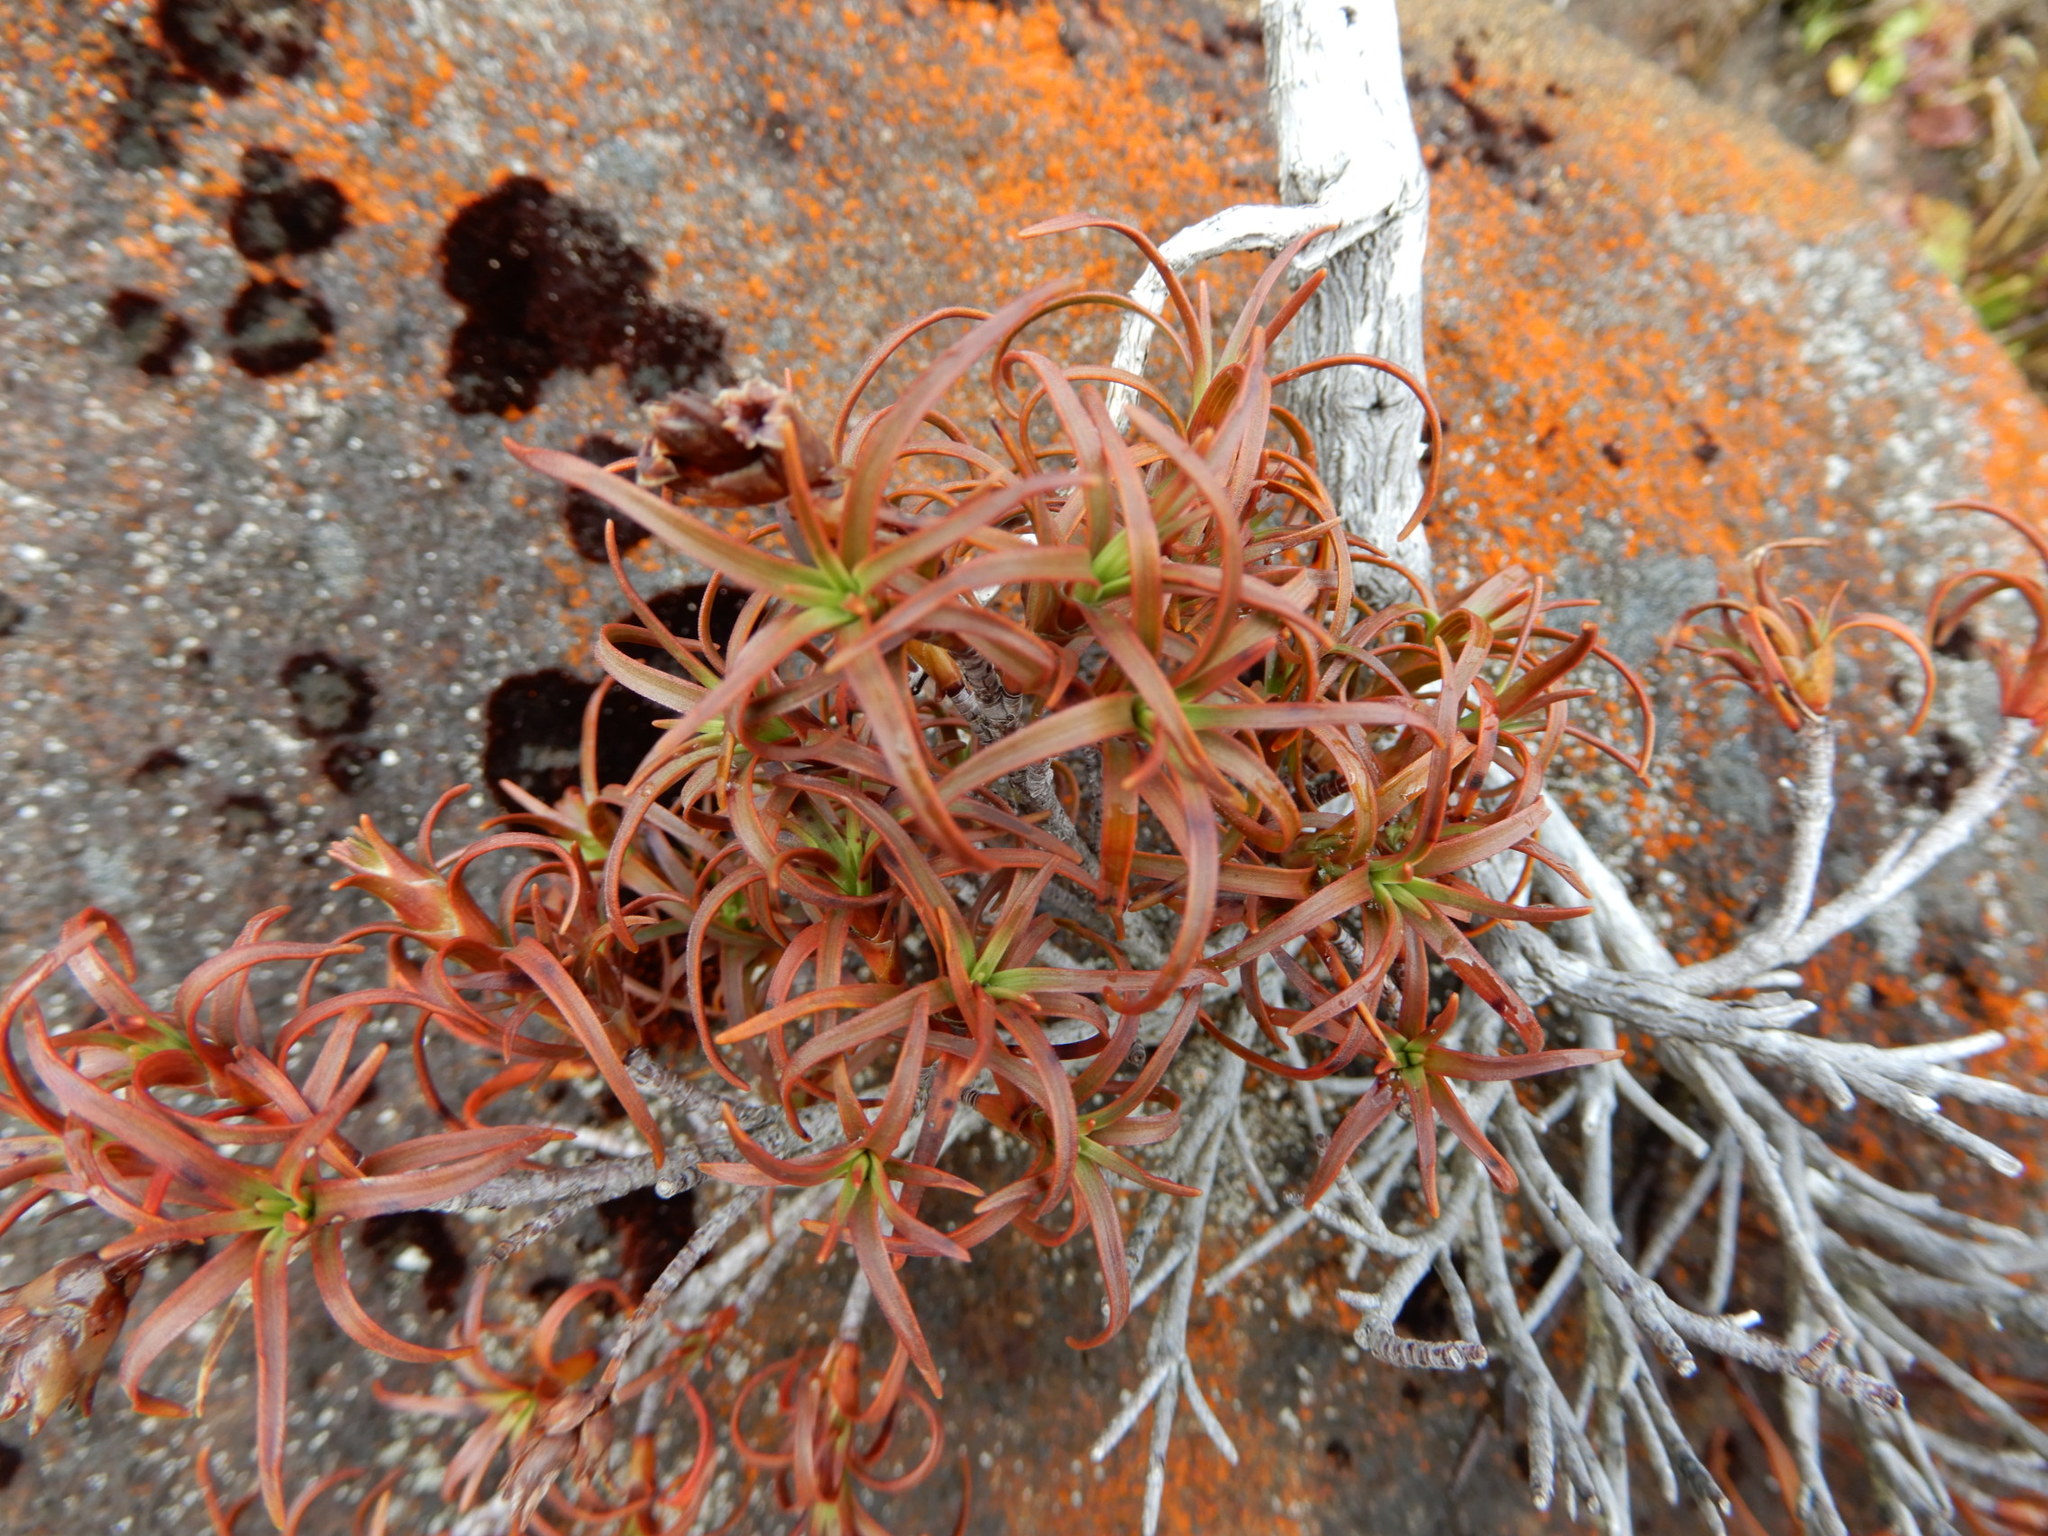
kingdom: Plantae
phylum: Tracheophyta
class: Magnoliopsida
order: Ericales
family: Ericaceae
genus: Dracophyllum
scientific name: Dracophyllum recurvum
